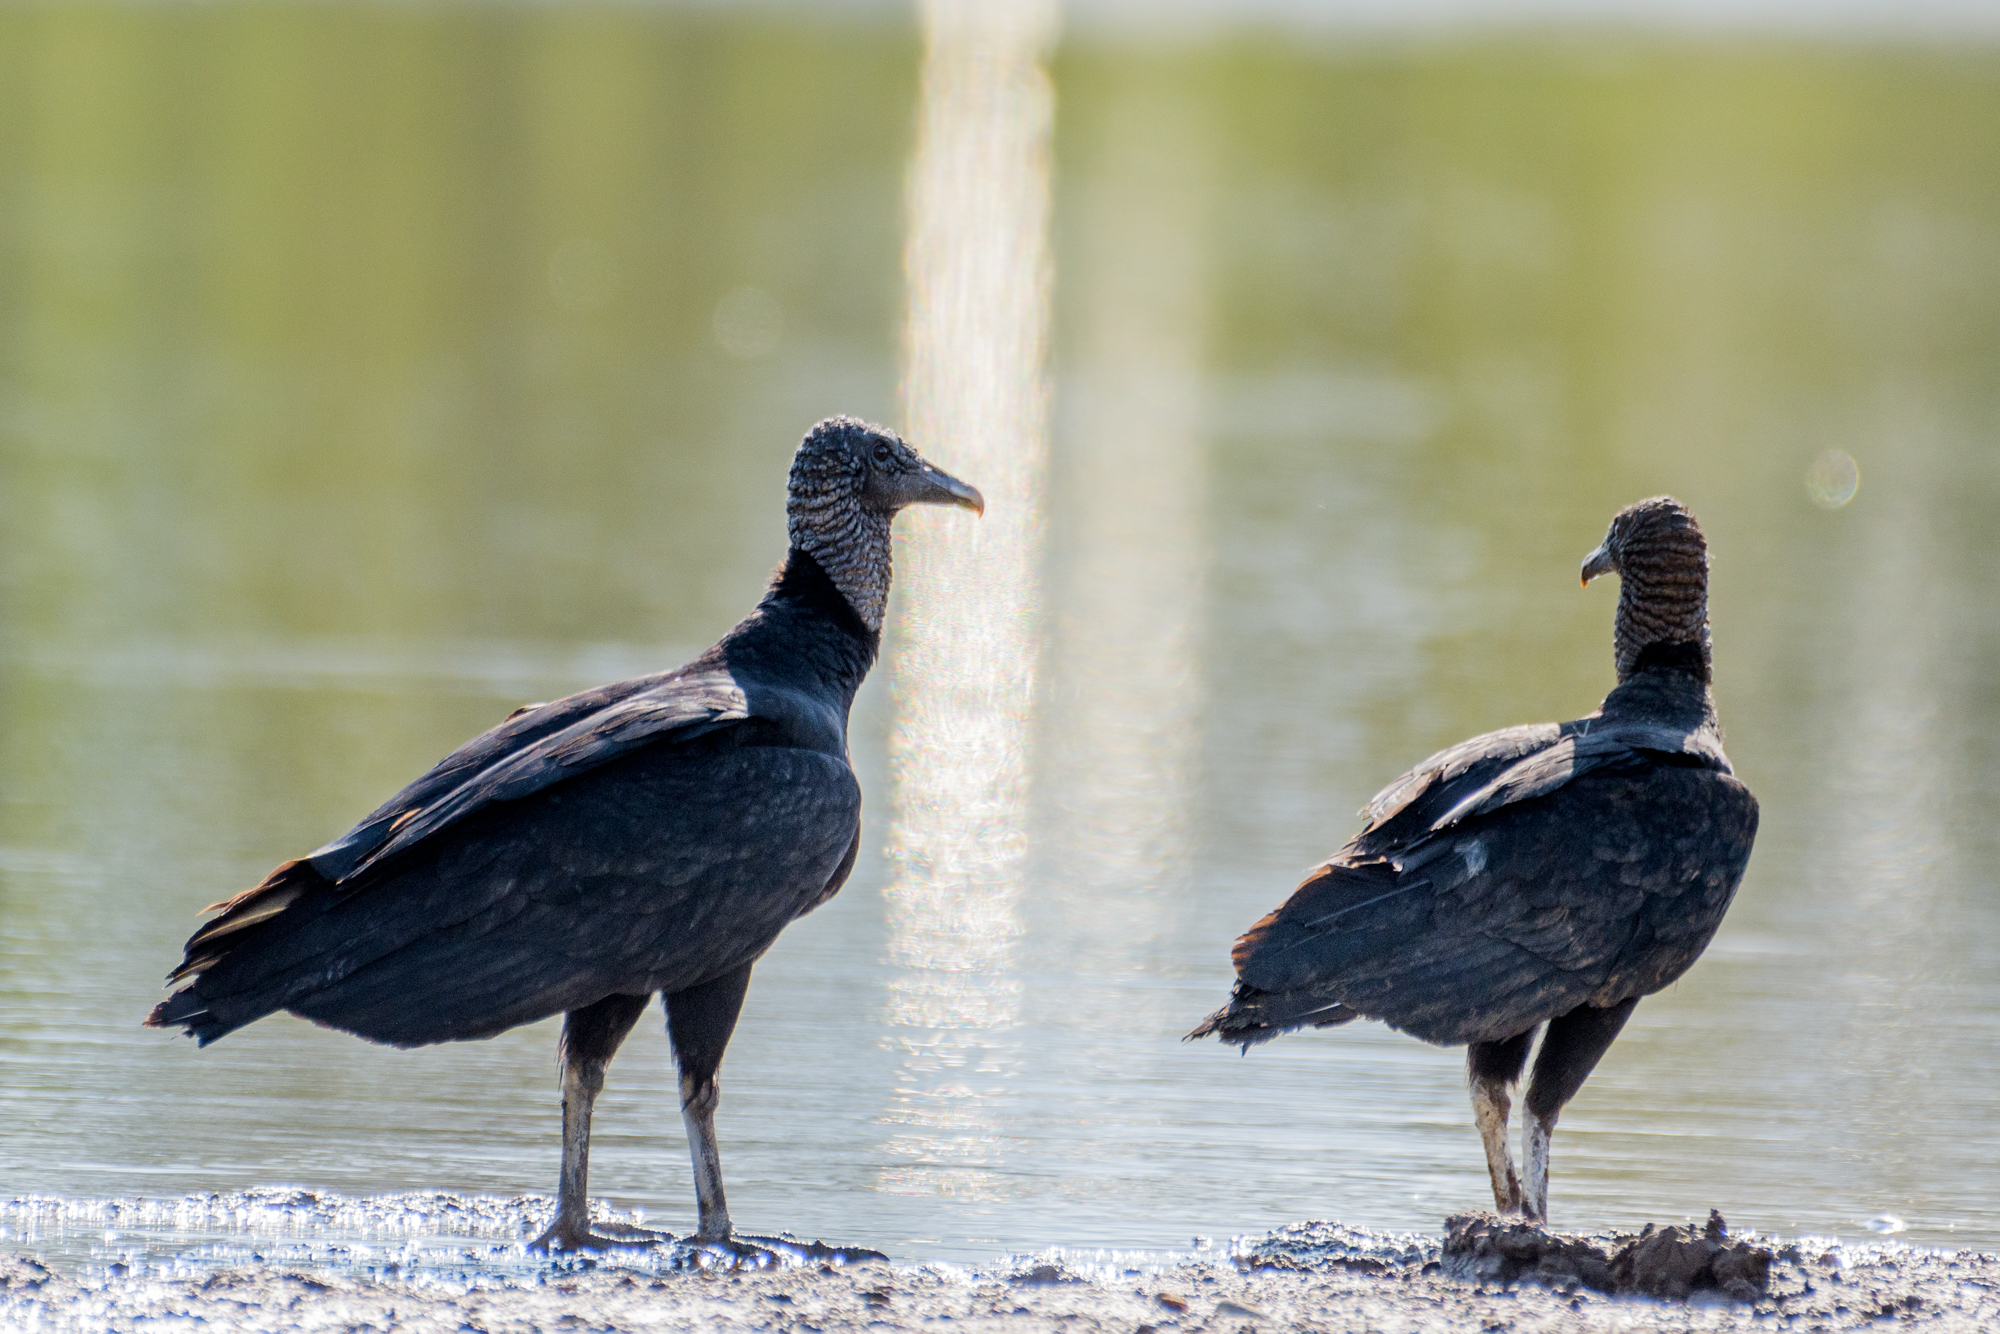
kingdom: Animalia
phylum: Chordata
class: Aves
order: Accipitriformes
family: Cathartidae
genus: Coragyps
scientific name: Coragyps atratus
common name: Black vulture
